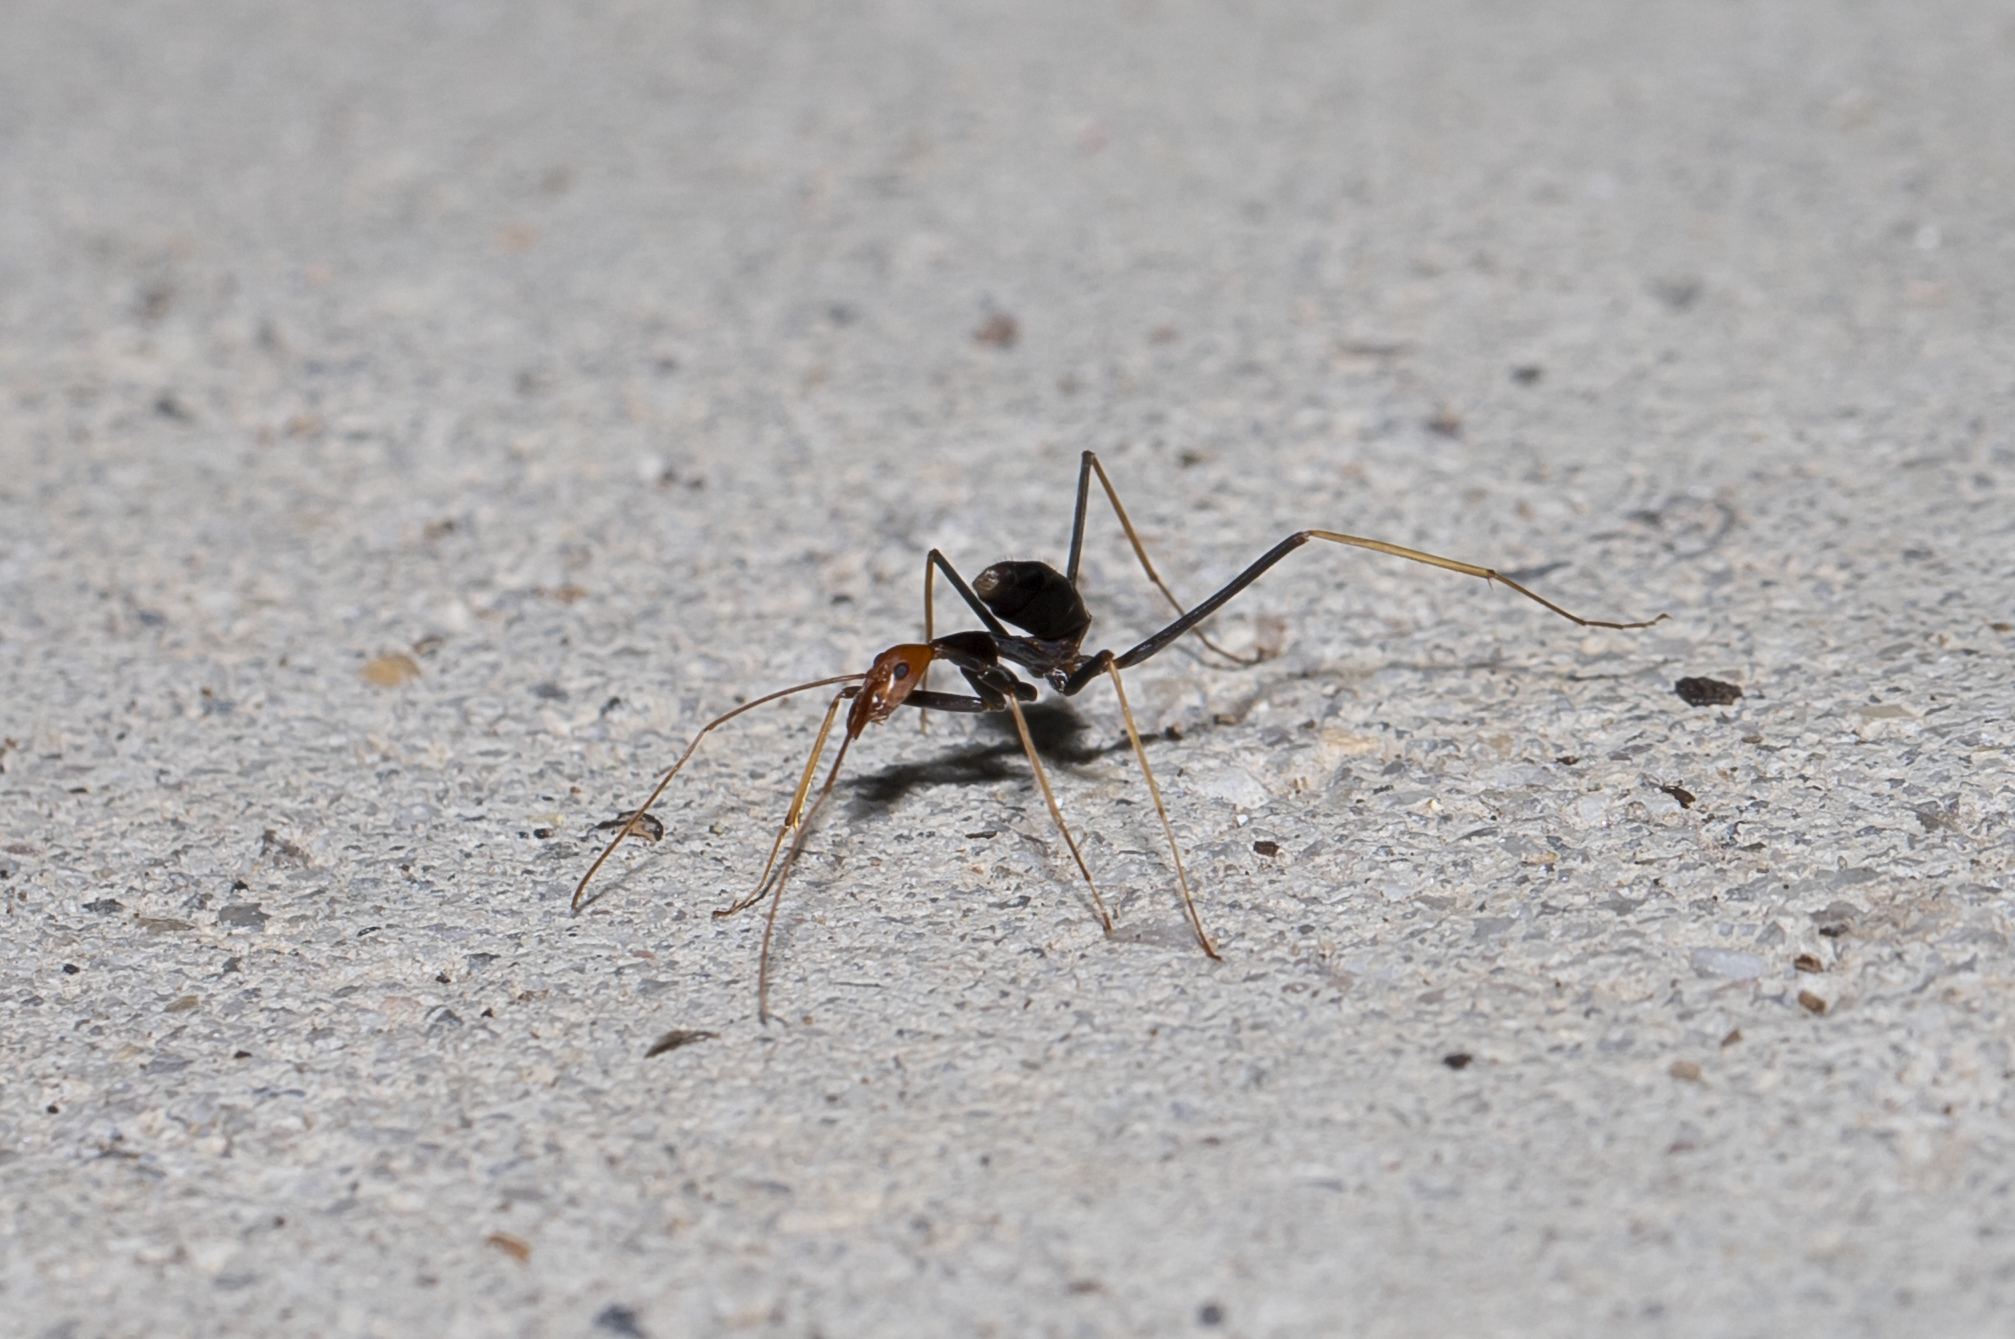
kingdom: Animalia
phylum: Arthropoda
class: Insecta
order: Hymenoptera
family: Formicidae
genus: Leptomyrmex
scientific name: Leptomyrmex ruficeps
